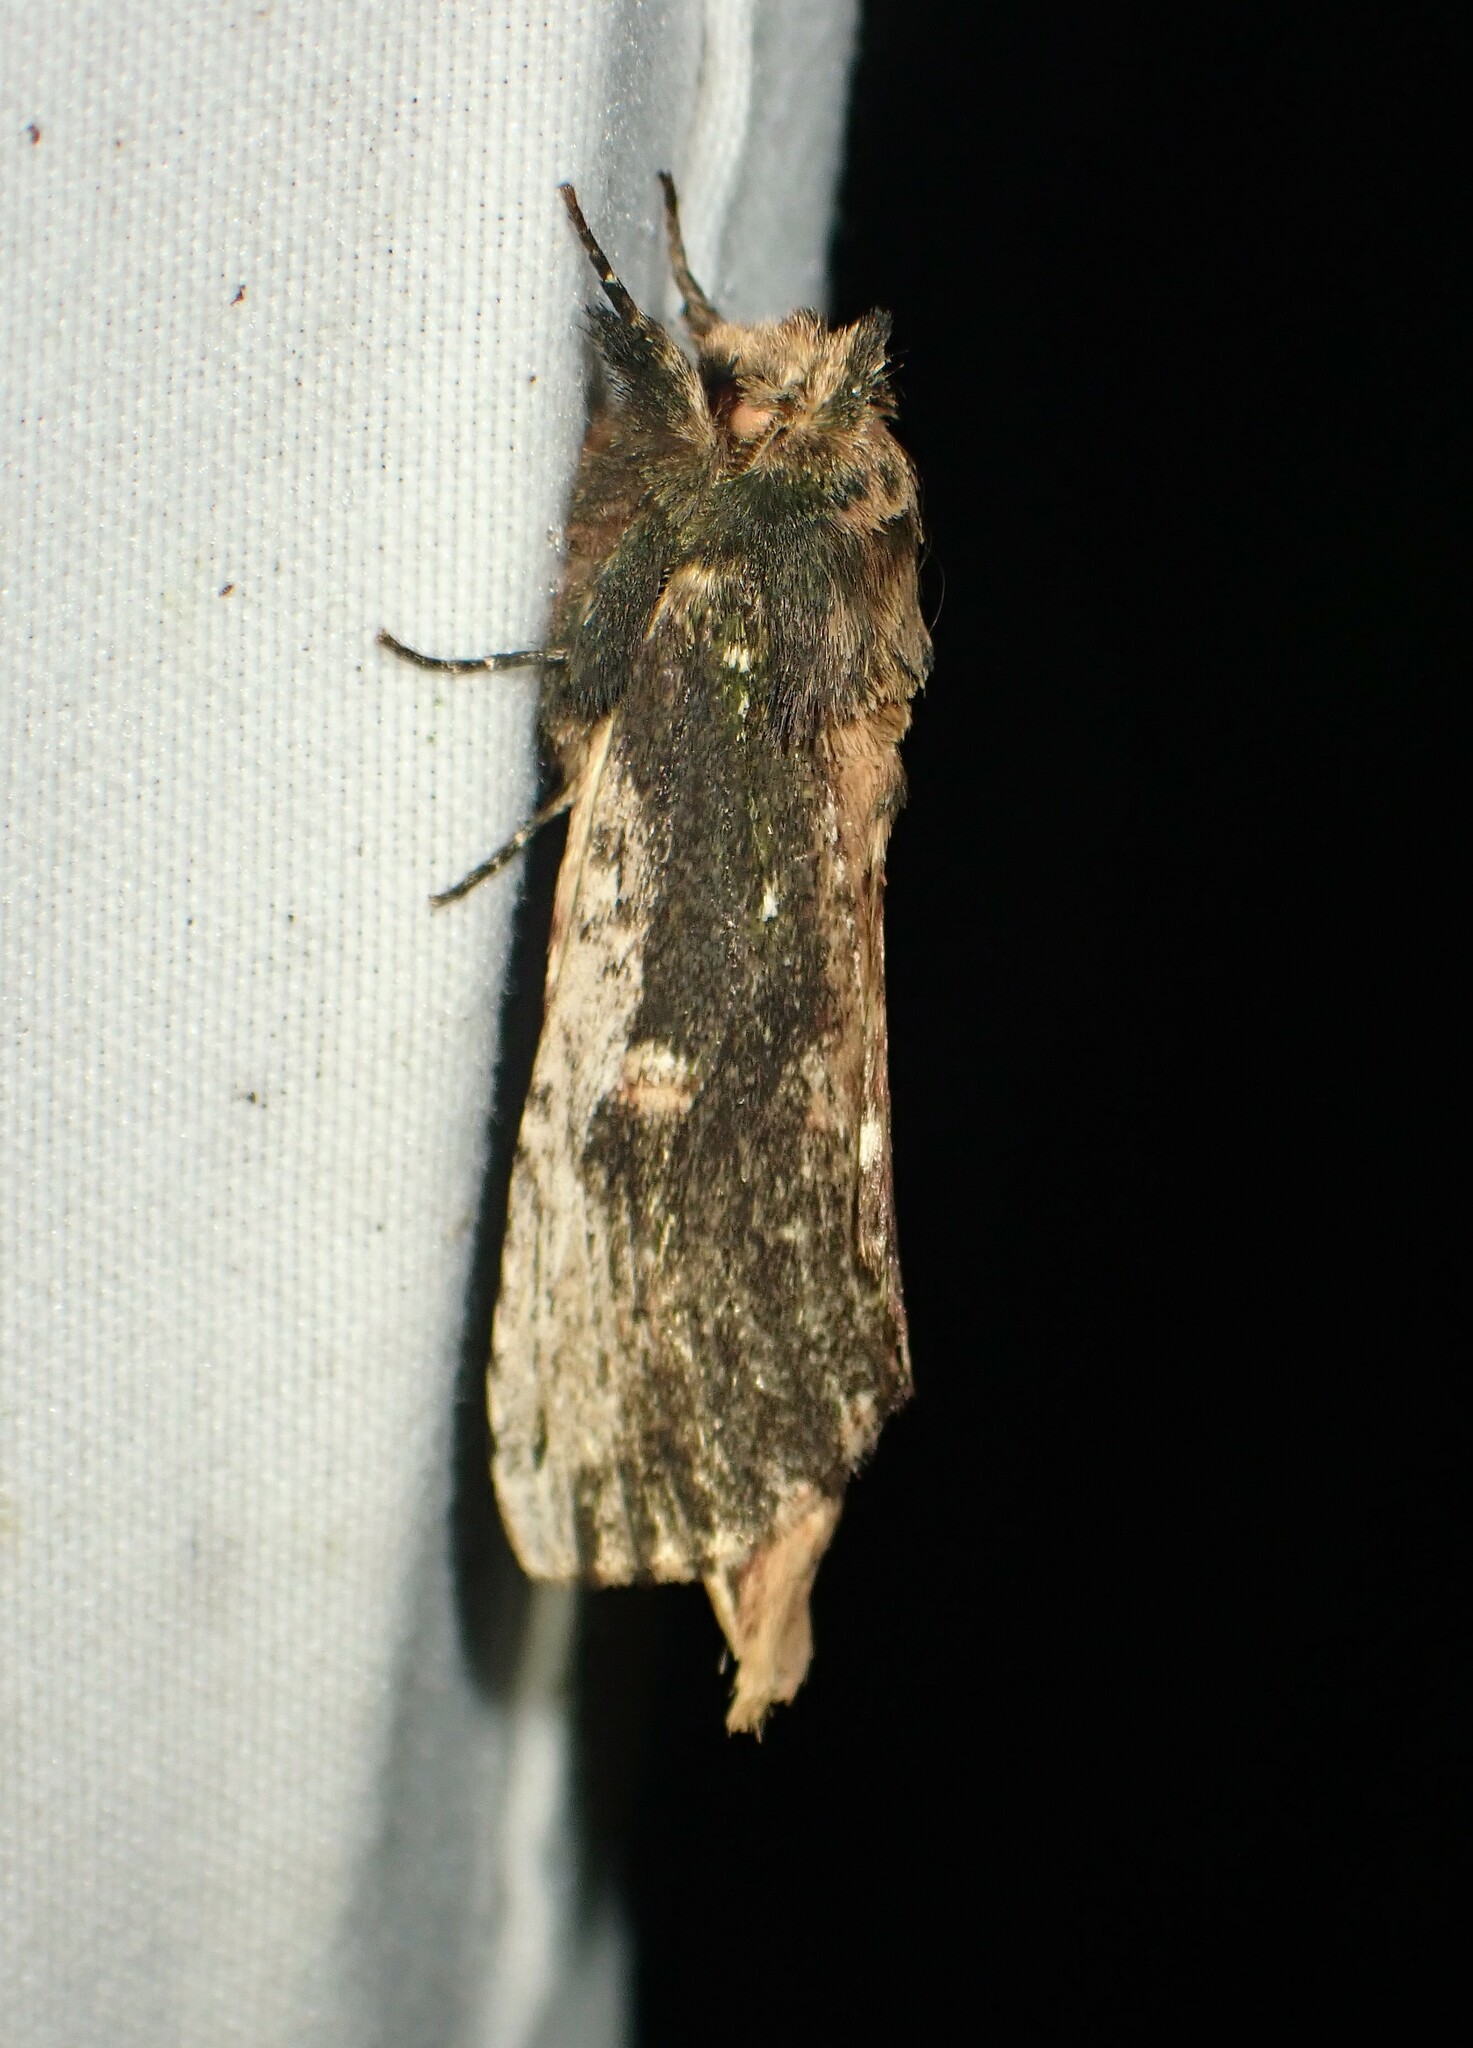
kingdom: Animalia
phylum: Arthropoda
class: Insecta
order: Lepidoptera
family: Notodontidae
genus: Schizura
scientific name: Schizura ipomaeae
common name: Morning-glory prominent
